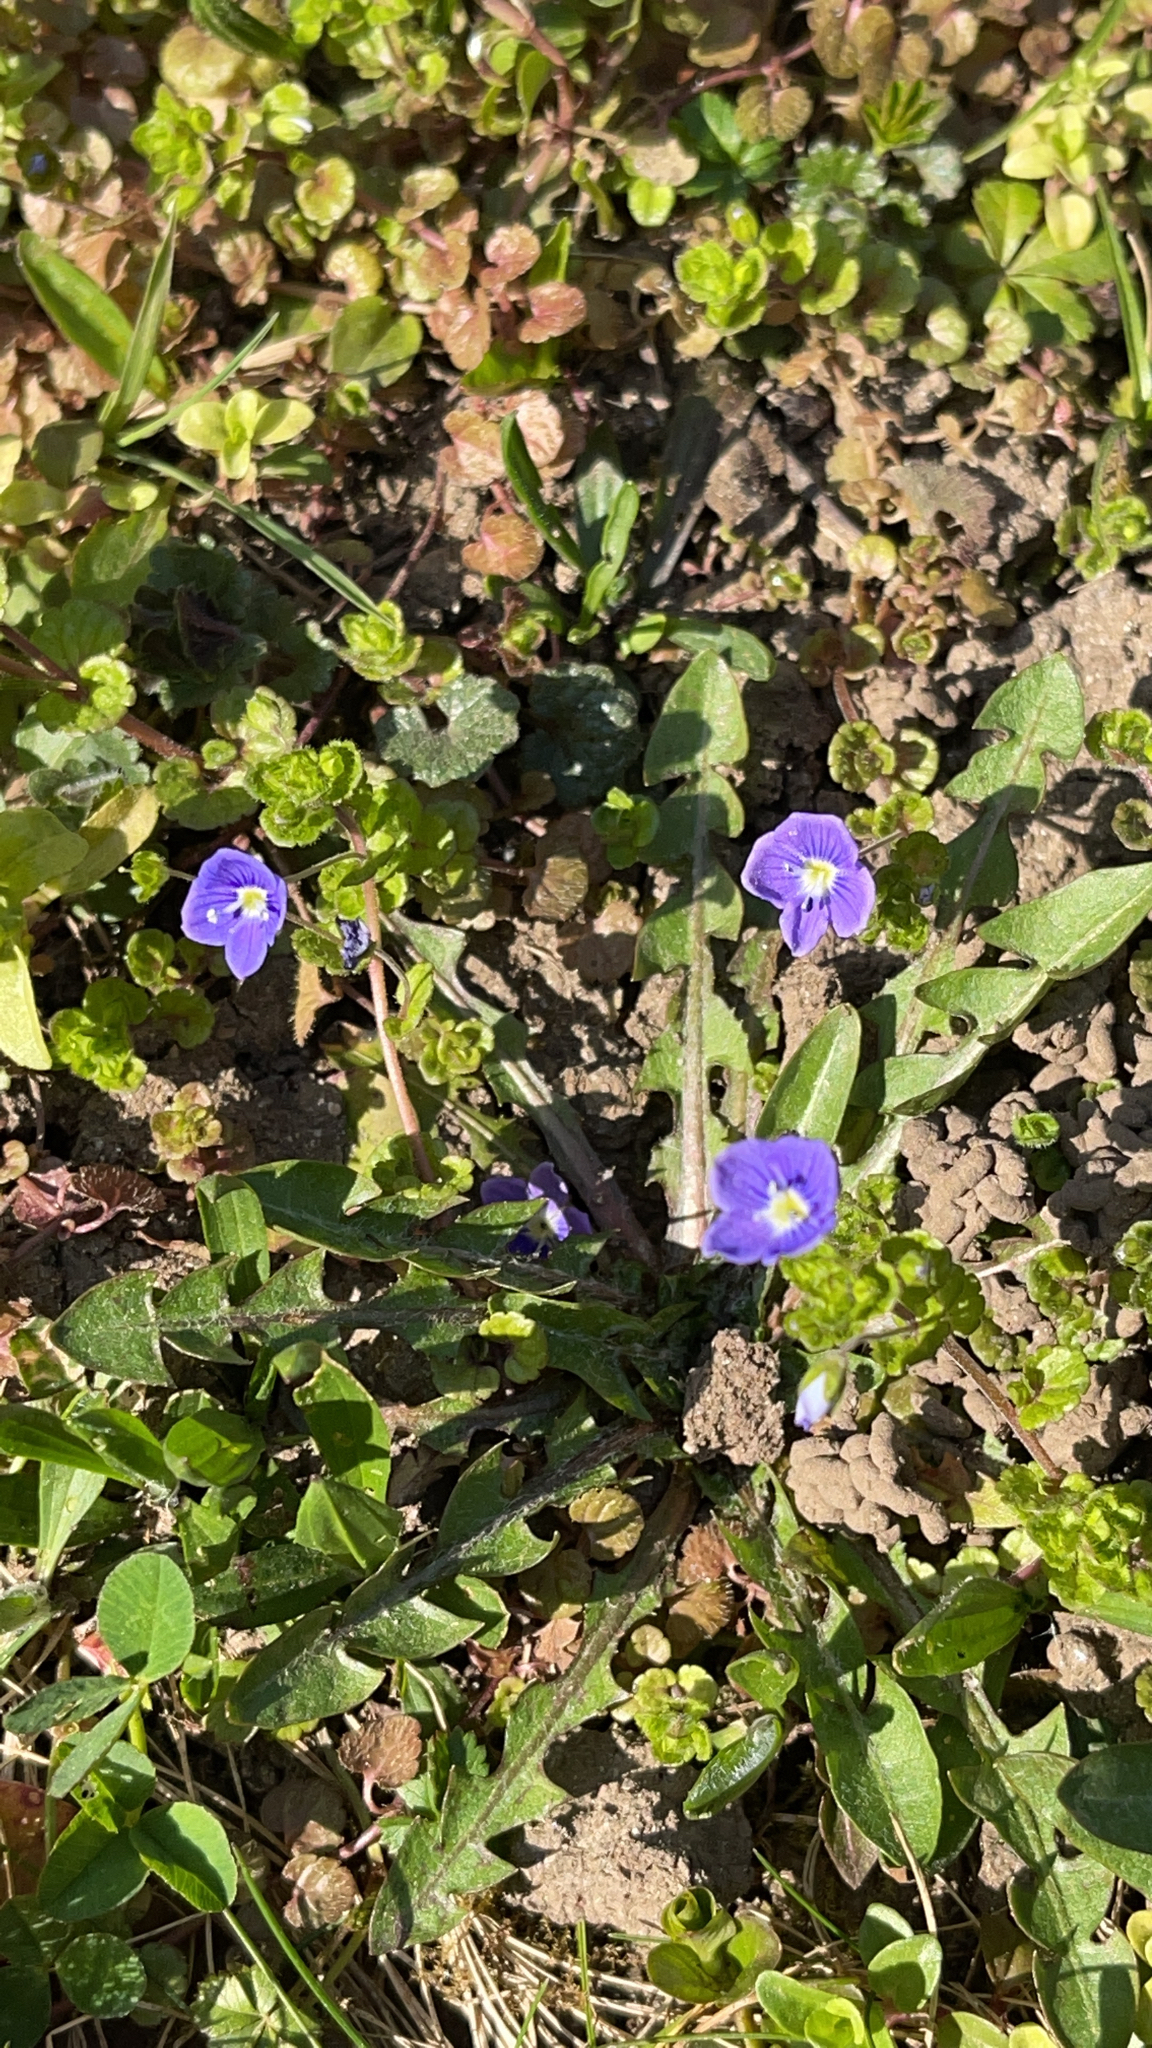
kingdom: Plantae
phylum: Tracheophyta
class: Magnoliopsida
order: Lamiales
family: Plantaginaceae
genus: Veronica
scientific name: Veronica filiformis
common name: Slender speedwell
